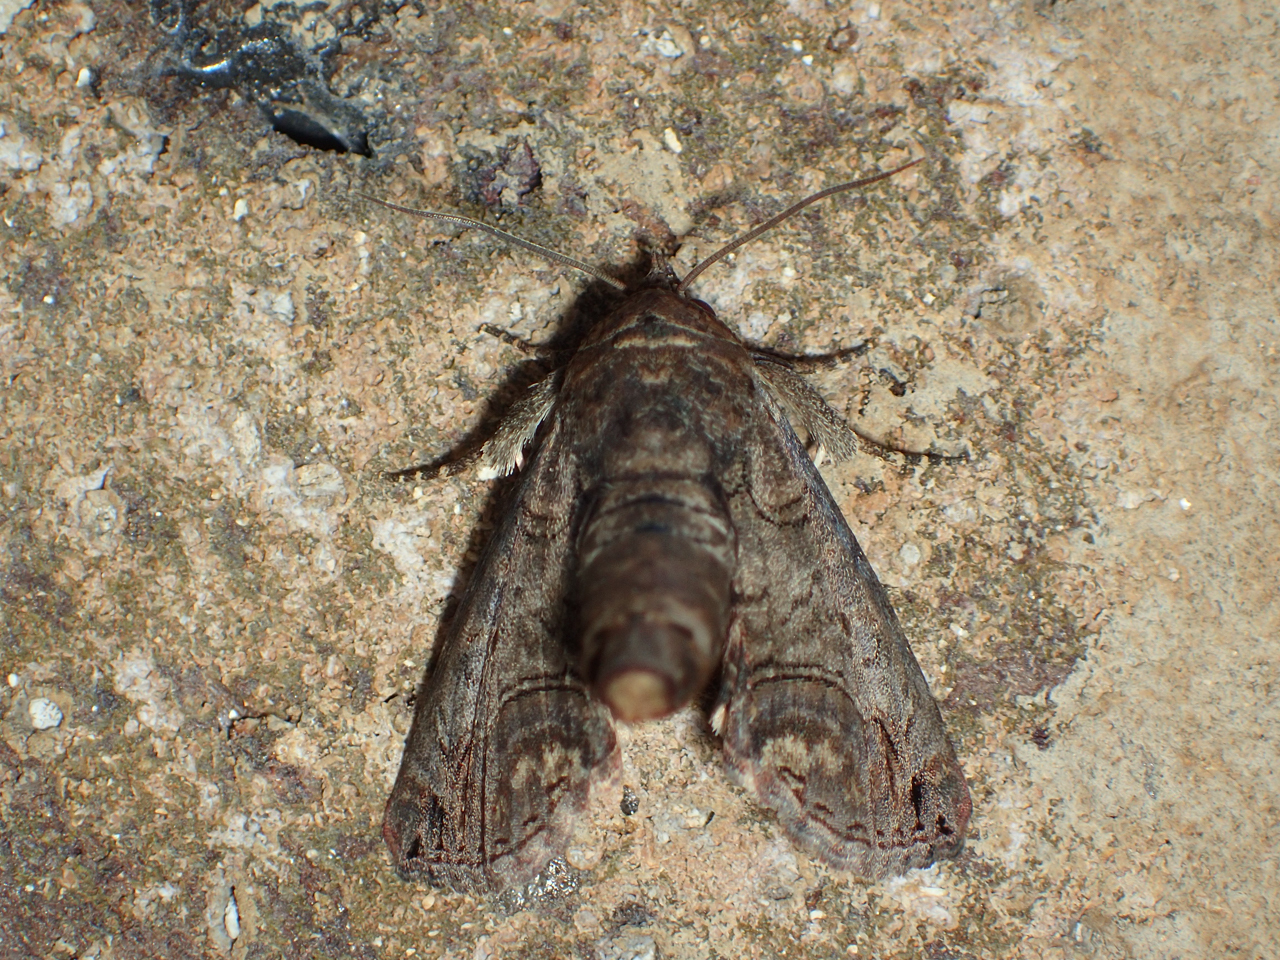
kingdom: Animalia
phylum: Arthropoda
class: Insecta
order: Lepidoptera
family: Euteliidae
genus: Paectes
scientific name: Paectes abrostoloides
